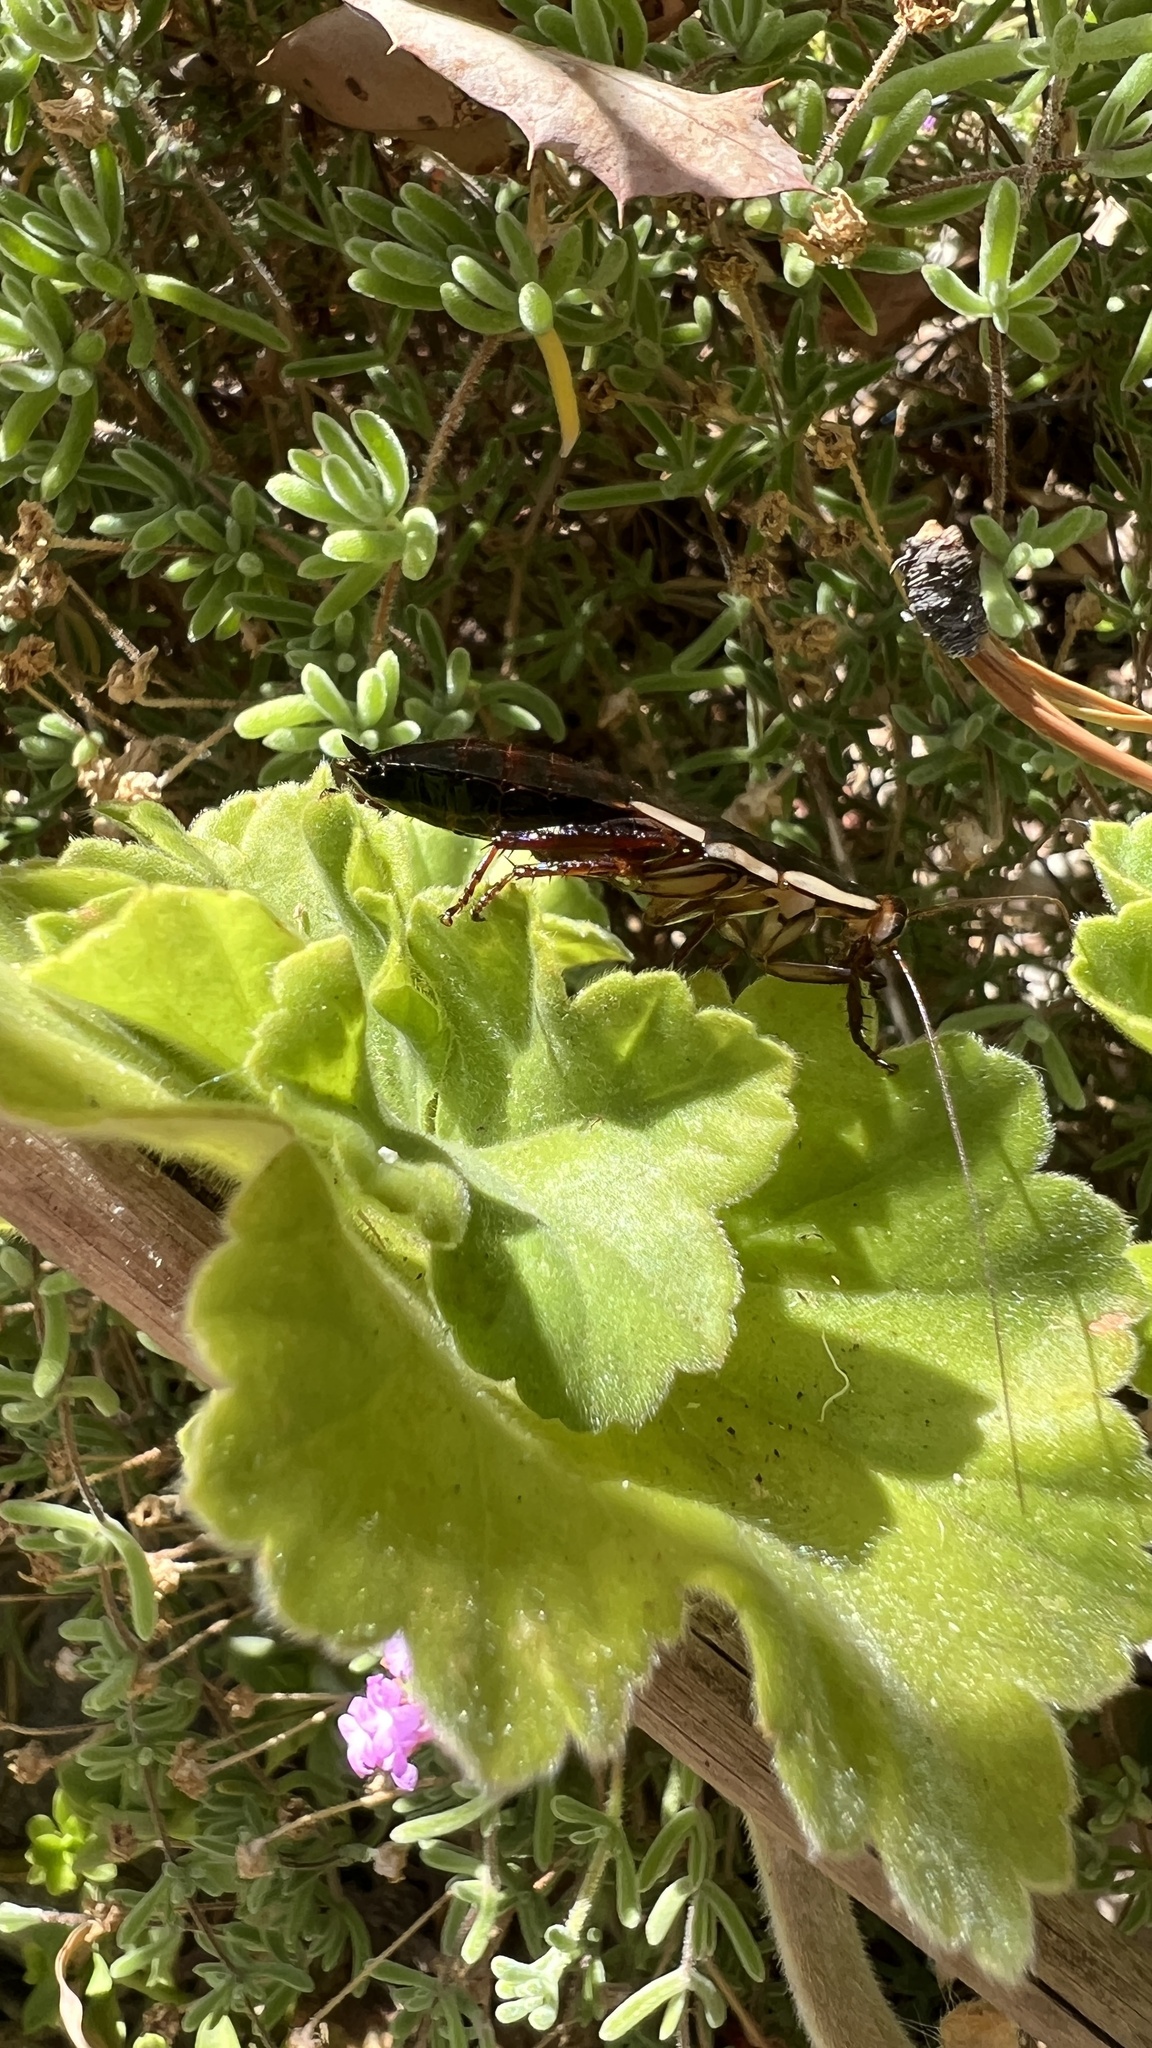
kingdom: Animalia
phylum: Arthropoda
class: Insecta
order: Blattodea
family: Blattidae
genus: Drymaplaneta
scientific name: Drymaplaneta semivitta
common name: Gisborne cockroach
